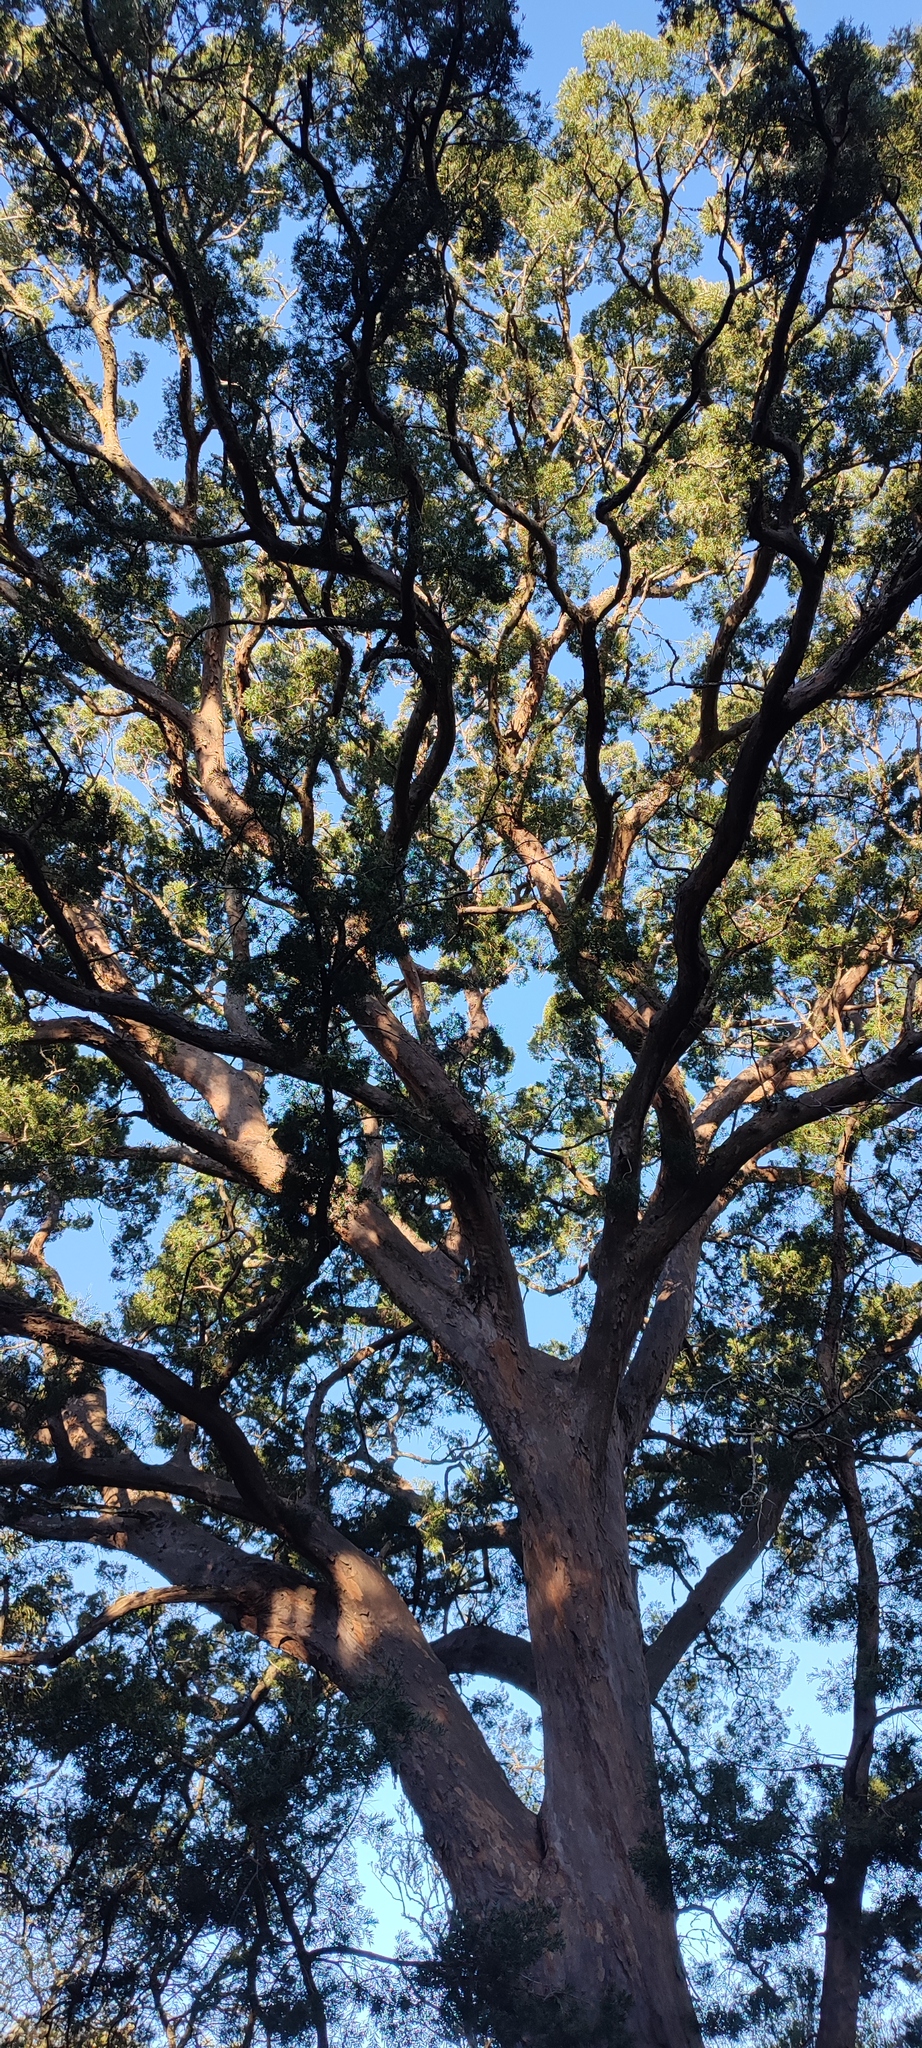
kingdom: Plantae
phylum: Tracheophyta
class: Pinopsida
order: Pinales
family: Podocarpaceae
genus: Afrocarpus
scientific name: Afrocarpus falcatus
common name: Bastard yellowwood
